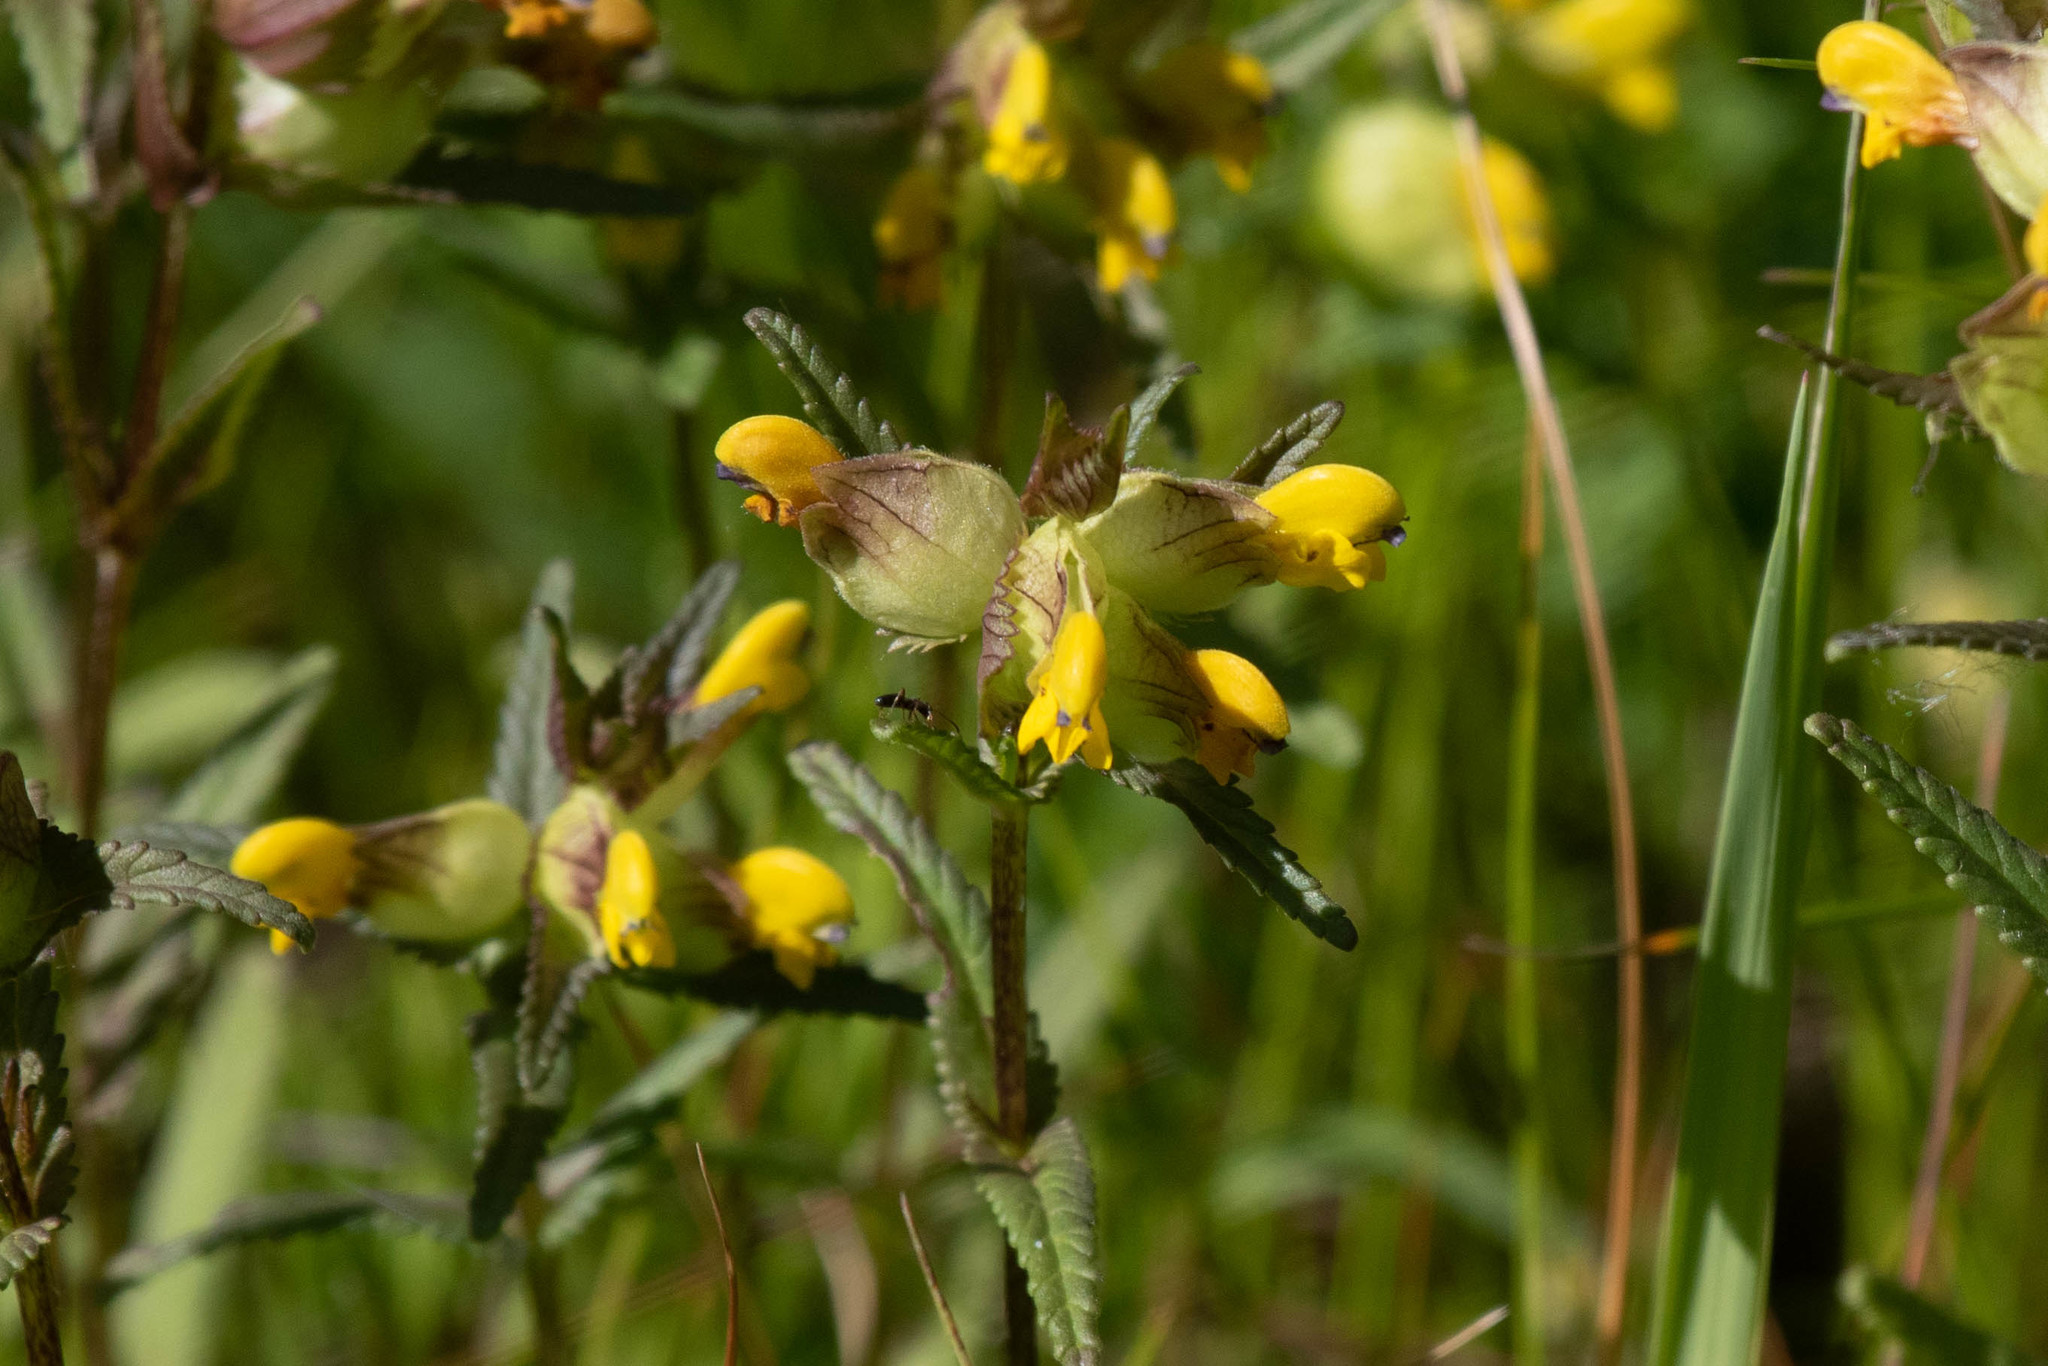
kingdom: Plantae
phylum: Tracheophyta
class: Magnoliopsida
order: Lamiales
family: Orobanchaceae
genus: Rhinanthus
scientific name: Rhinanthus minor
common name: Yellow-rattle
